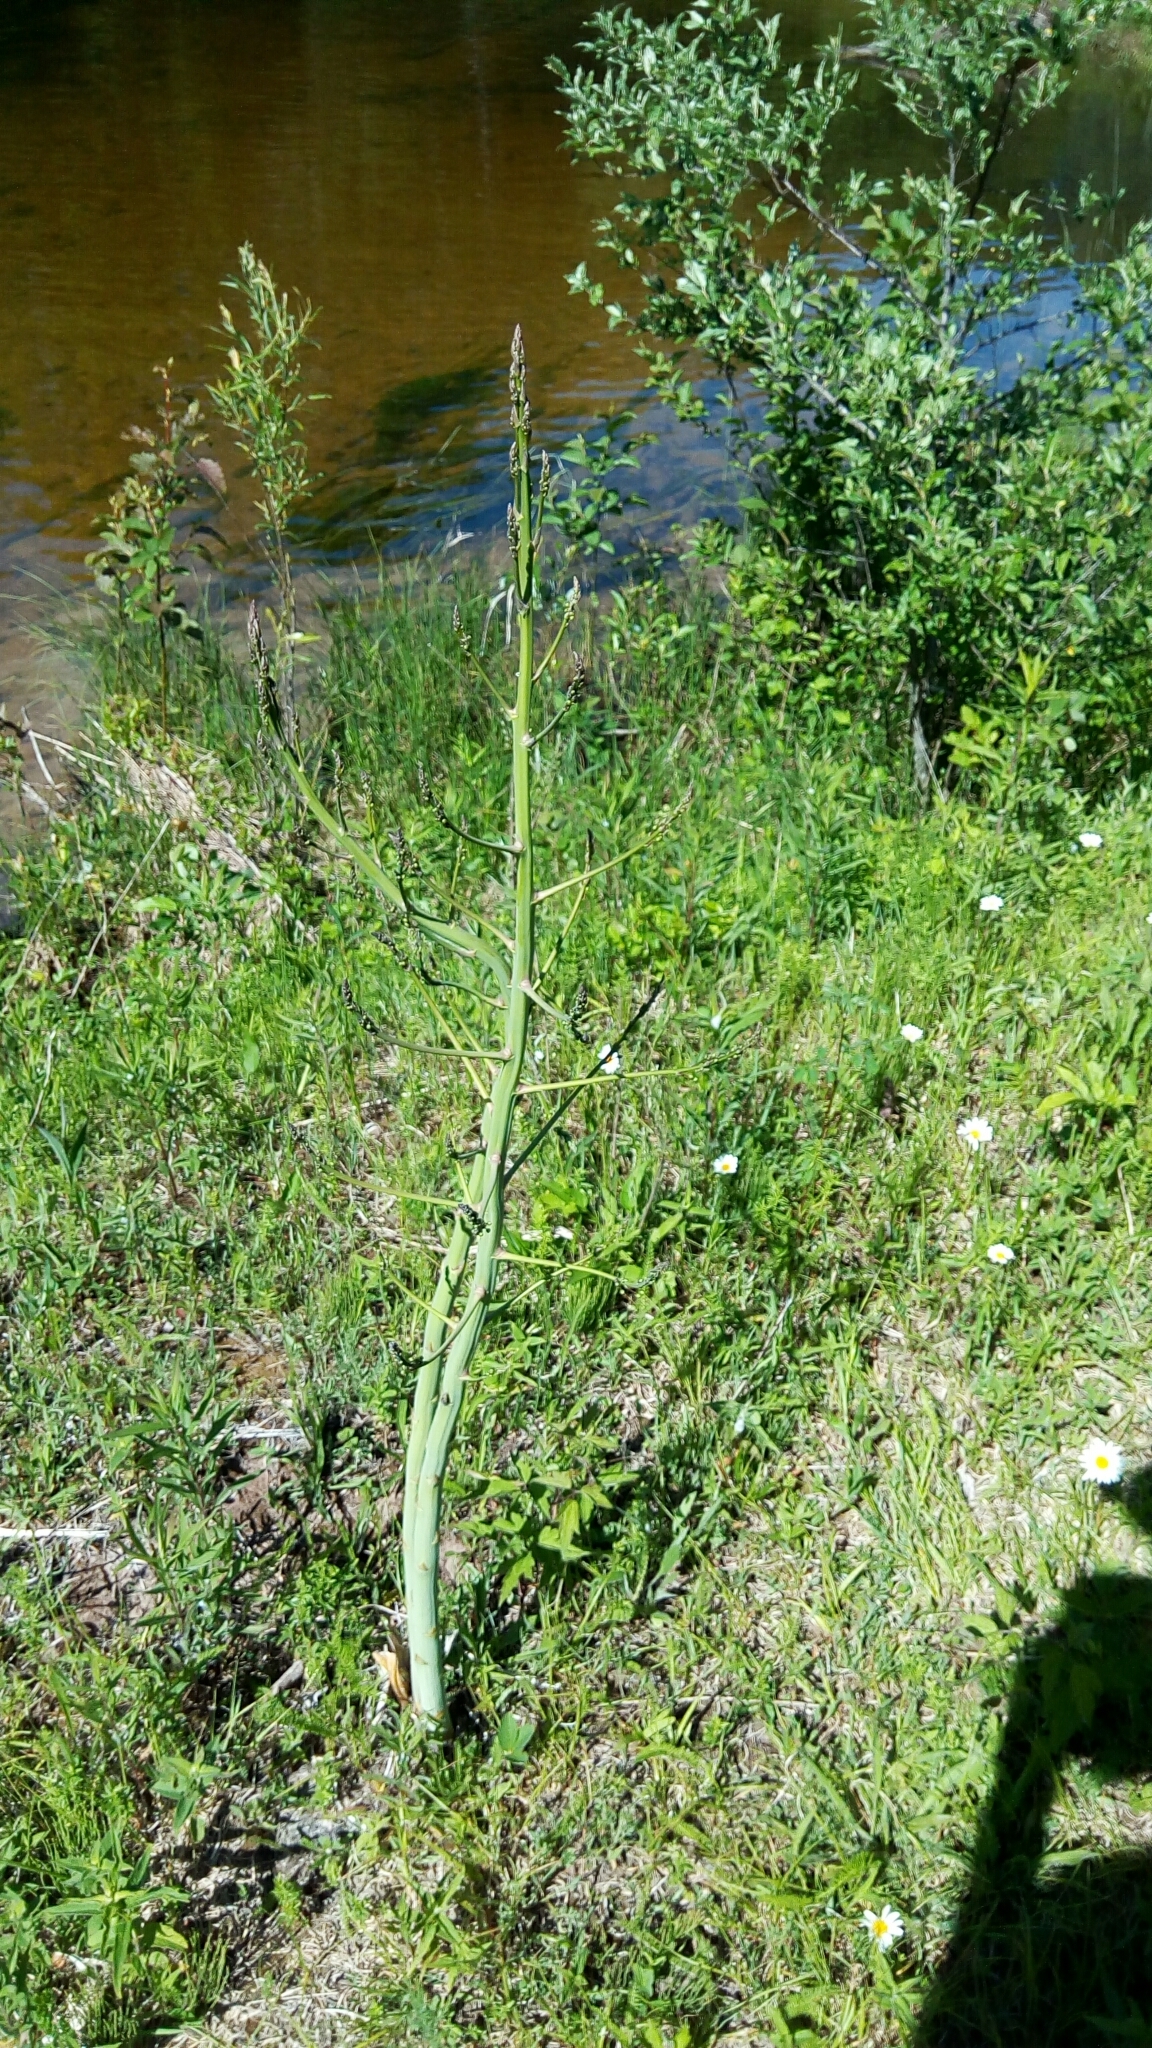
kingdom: Plantae
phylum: Tracheophyta
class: Liliopsida
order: Asparagales
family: Asparagaceae
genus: Asparagus
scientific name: Asparagus officinalis
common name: Garden asparagus
